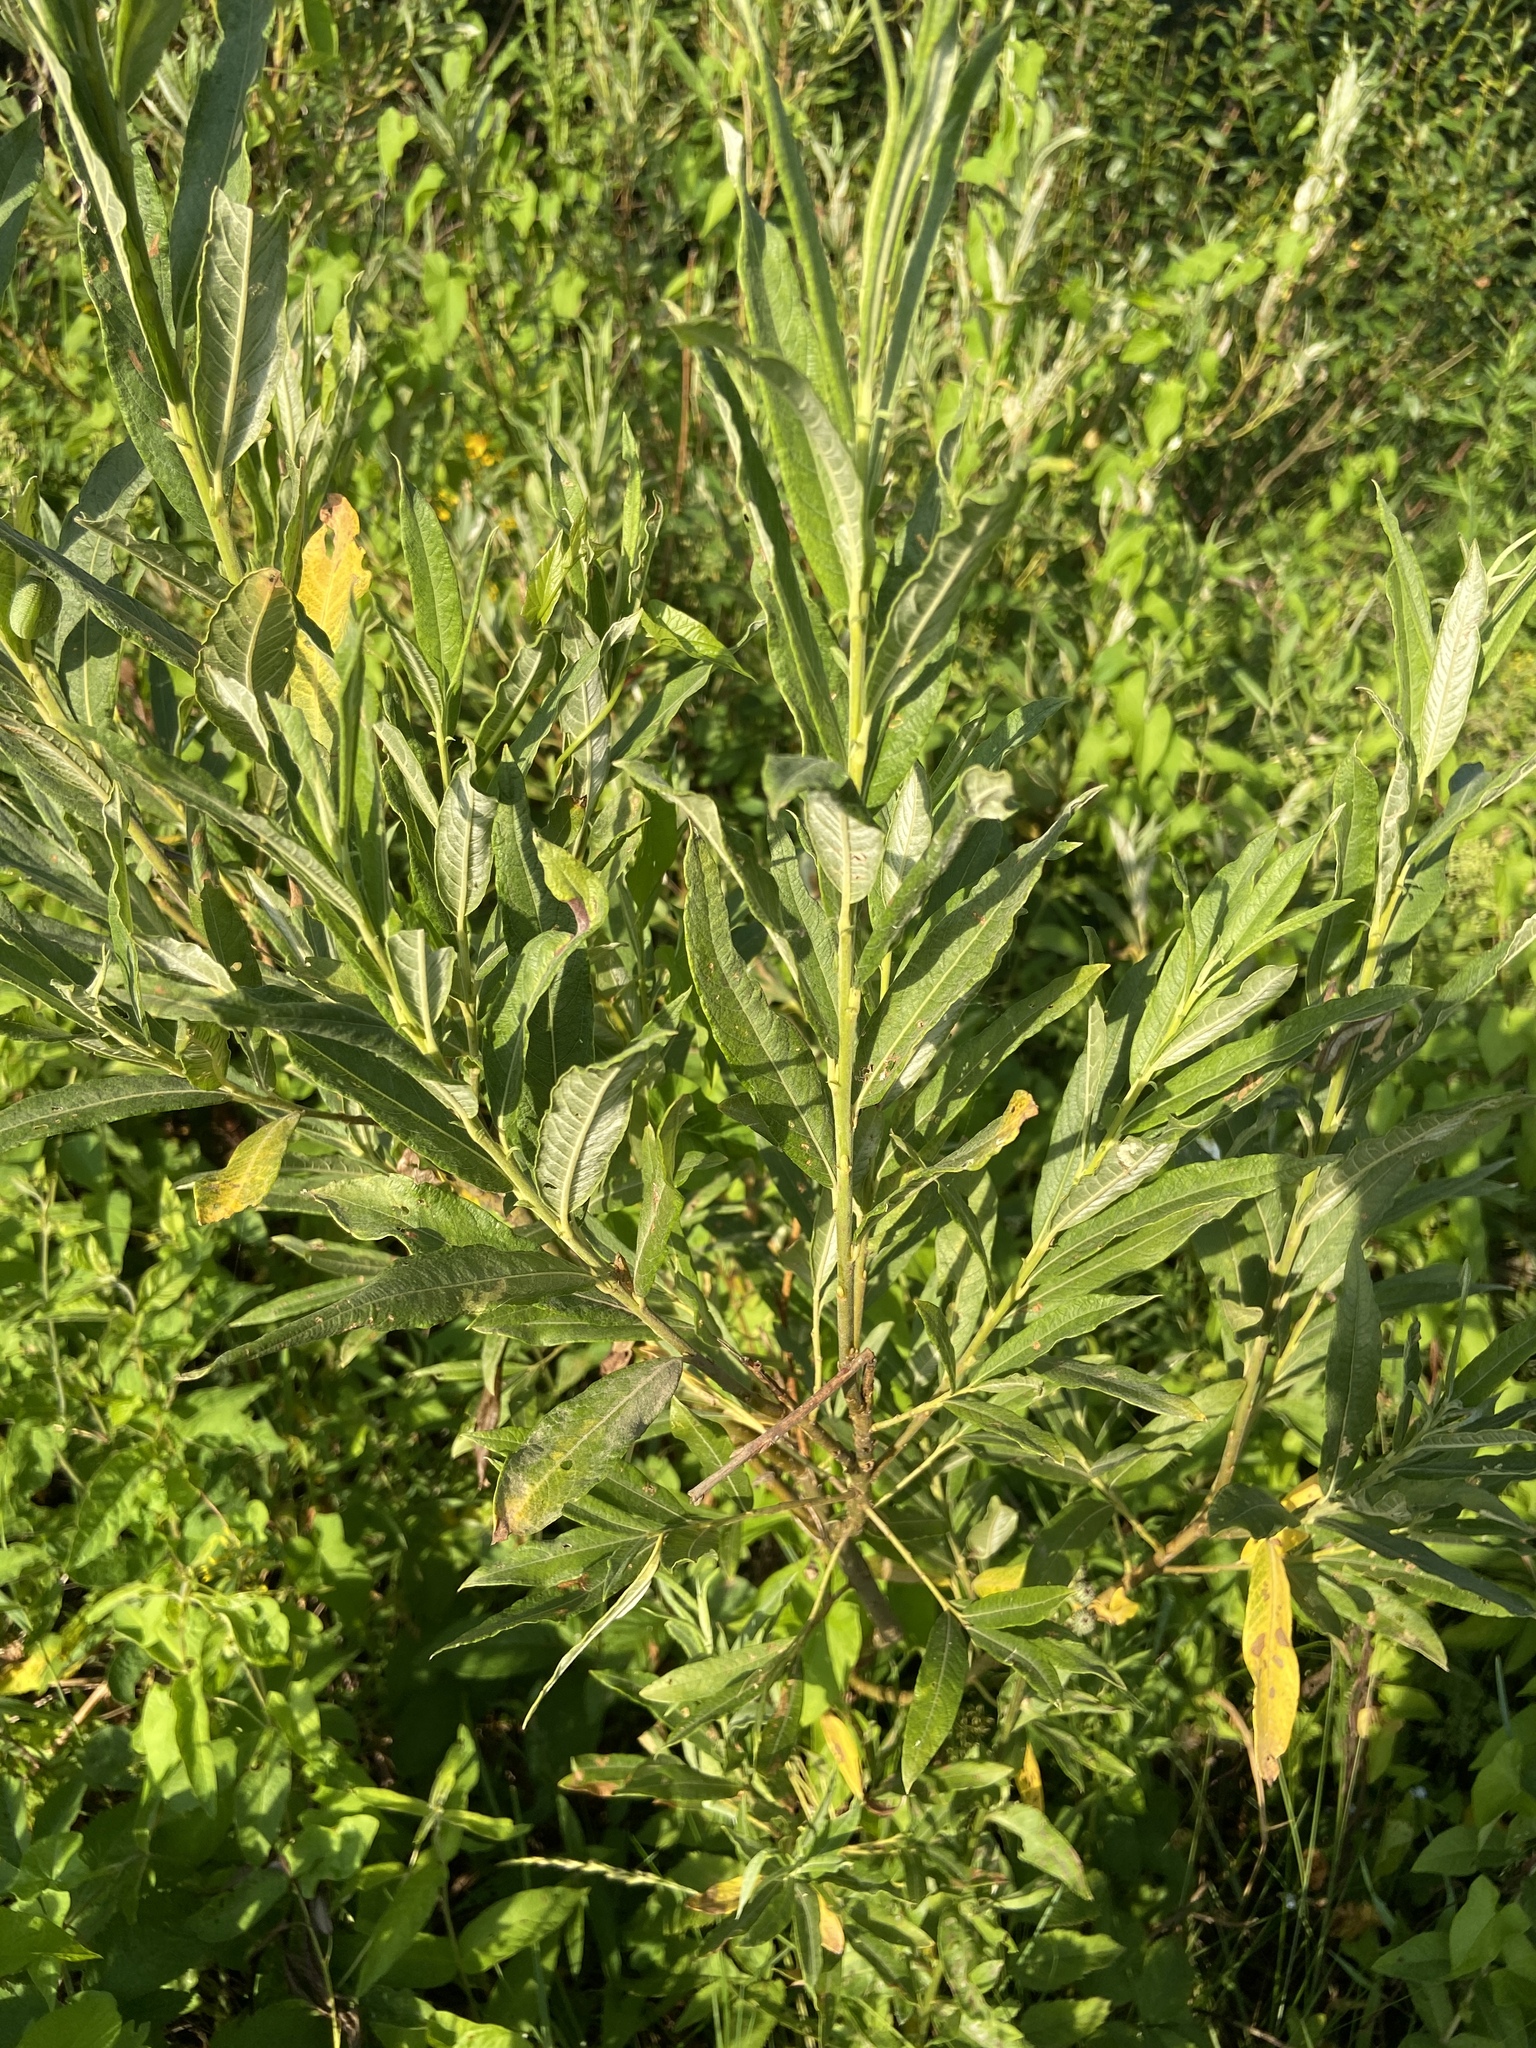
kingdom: Plantae
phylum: Tracheophyta
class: Magnoliopsida
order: Malpighiales
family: Salicaceae
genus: Salix
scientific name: Salix viminalis
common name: Osier
